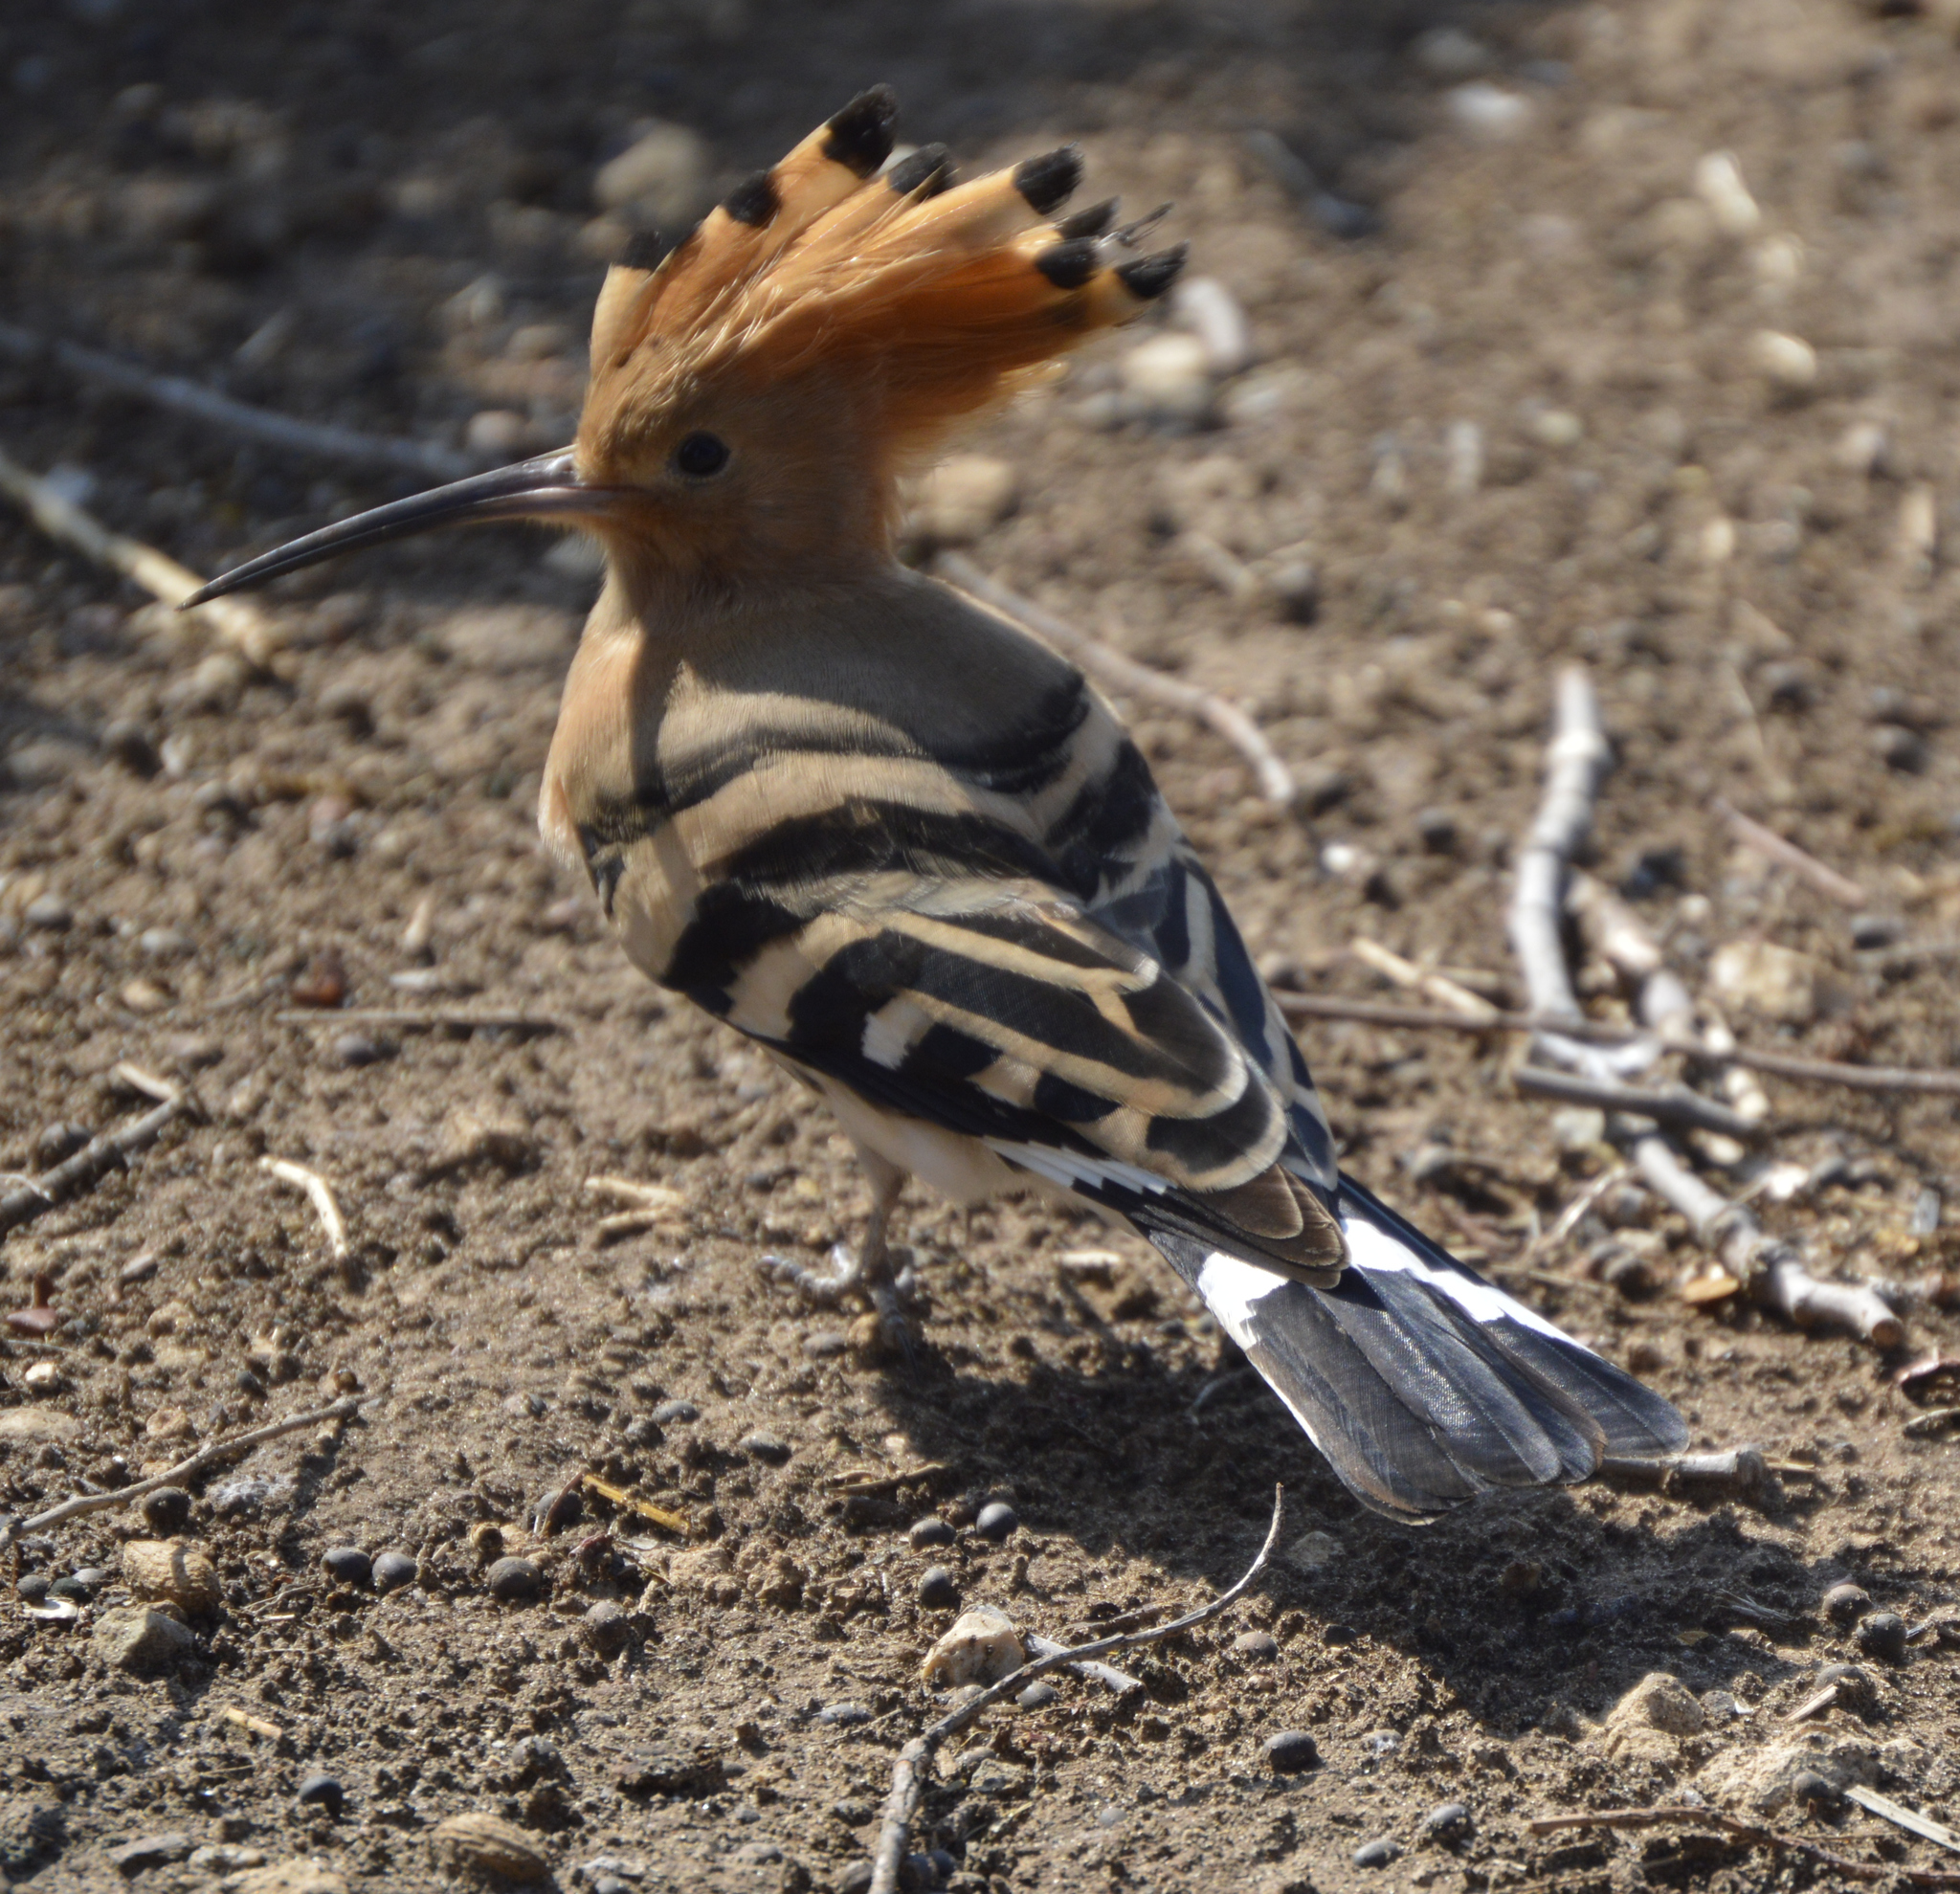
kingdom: Animalia
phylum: Chordata
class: Aves
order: Bucerotiformes
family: Upupidae
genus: Upupa
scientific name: Upupa epops
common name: Eurasian hoopoe
